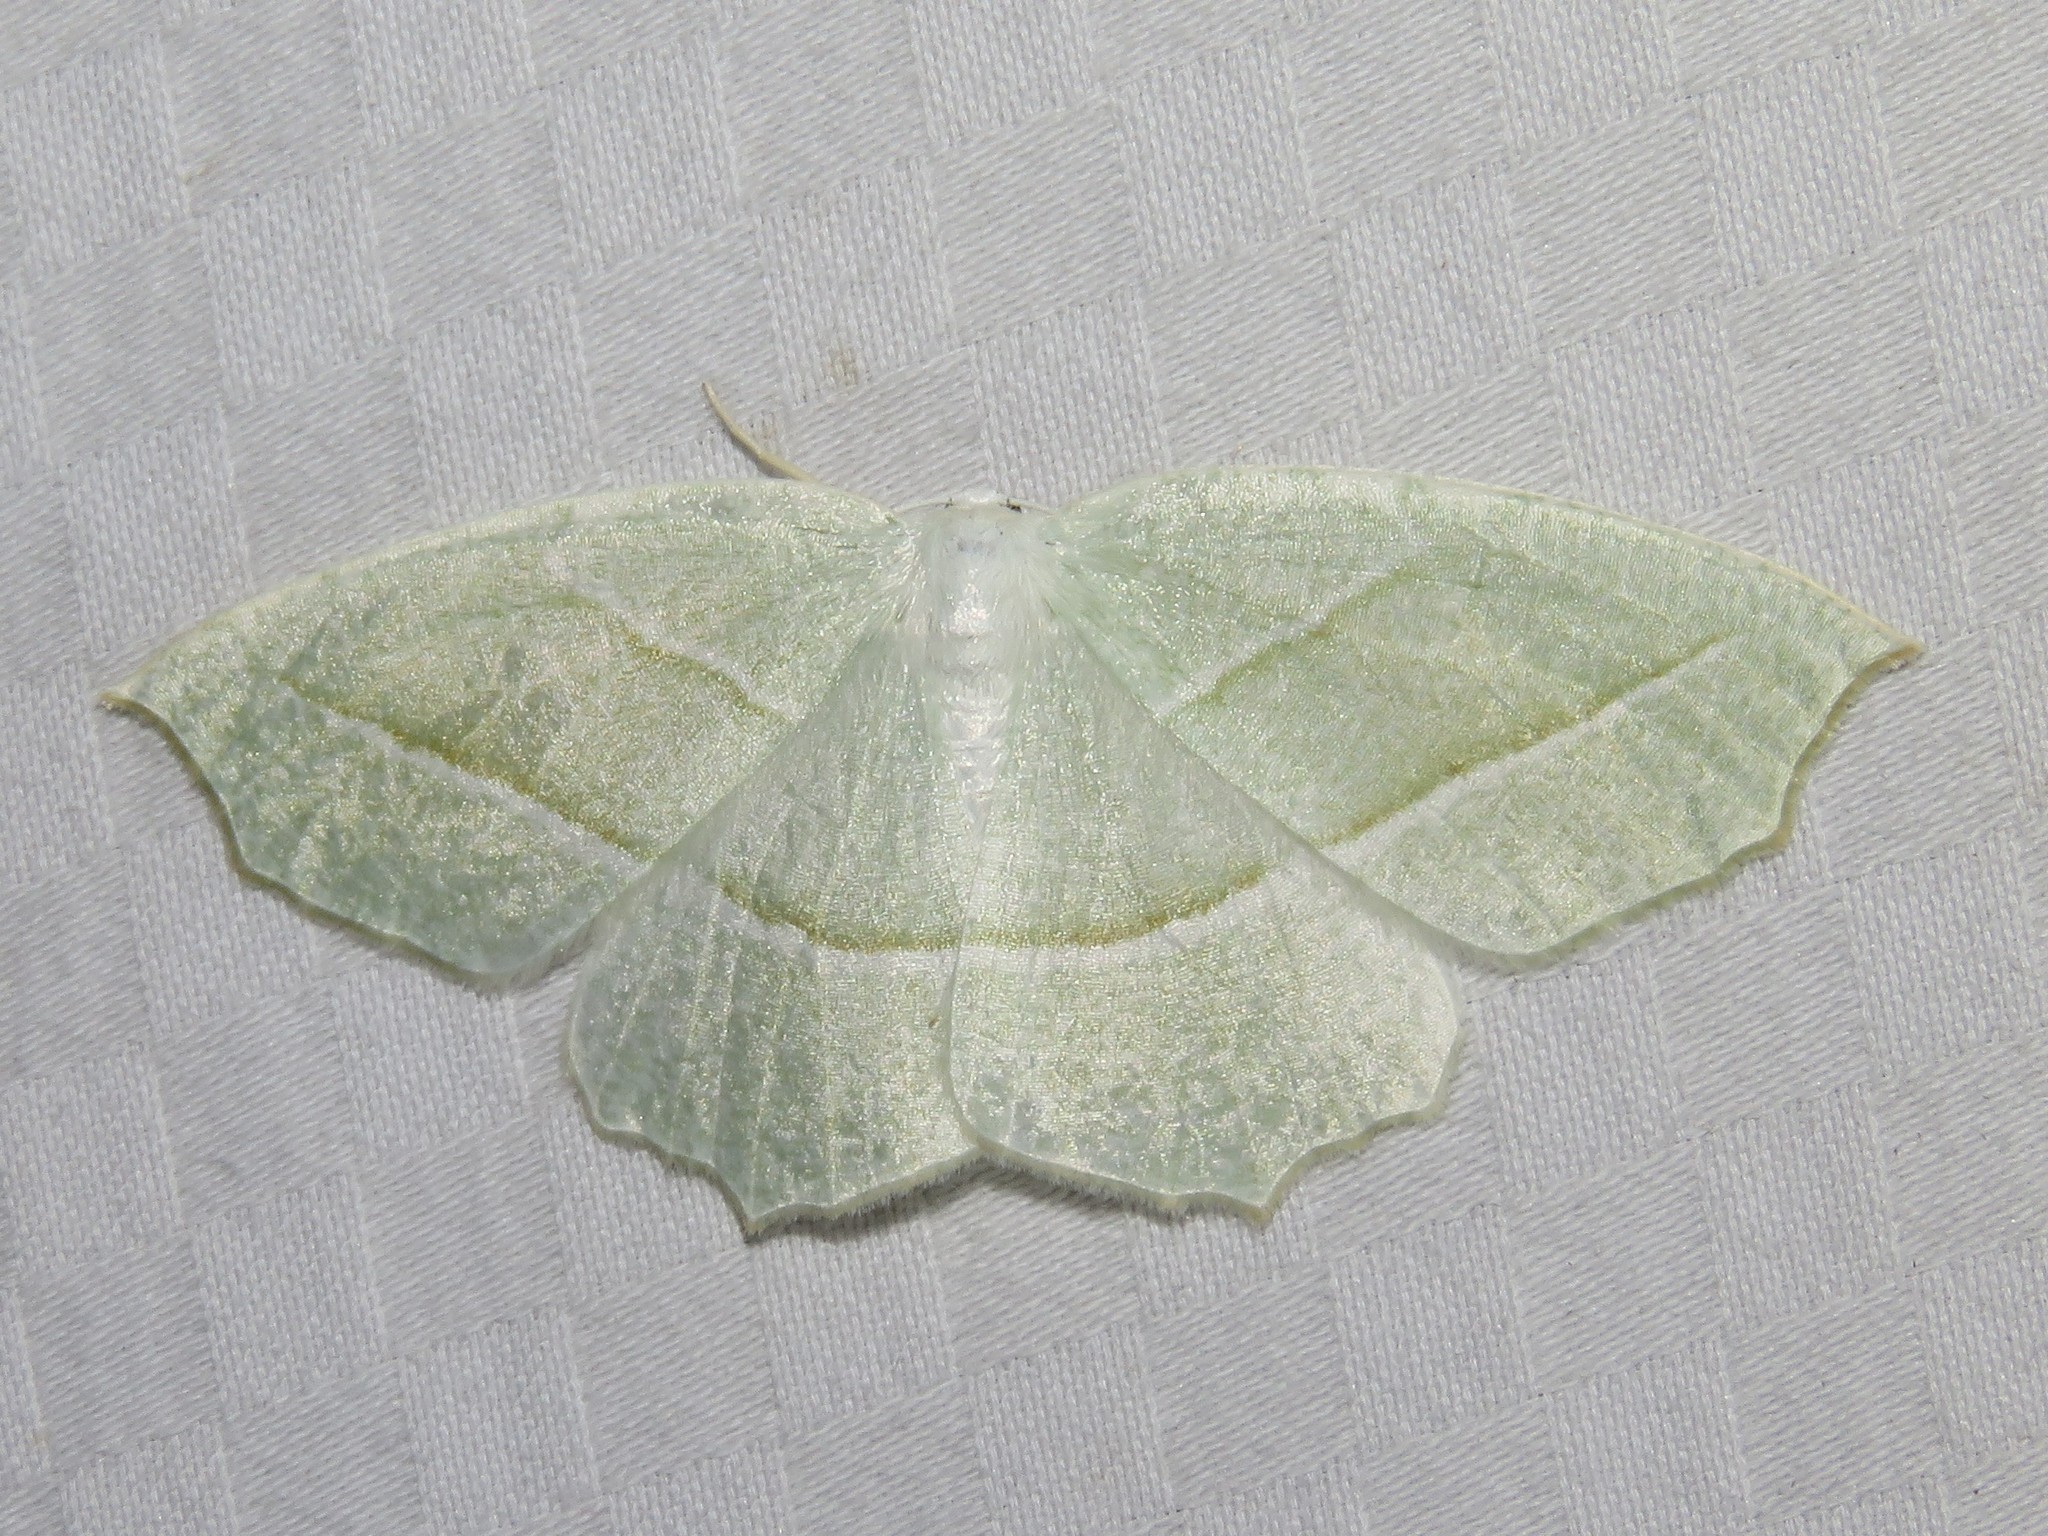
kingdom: Animalia
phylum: Arthropoda
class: Insecta
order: Lepidoptera
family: Geometridae
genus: Campaea
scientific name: Campaea perlata
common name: Fringed looper
